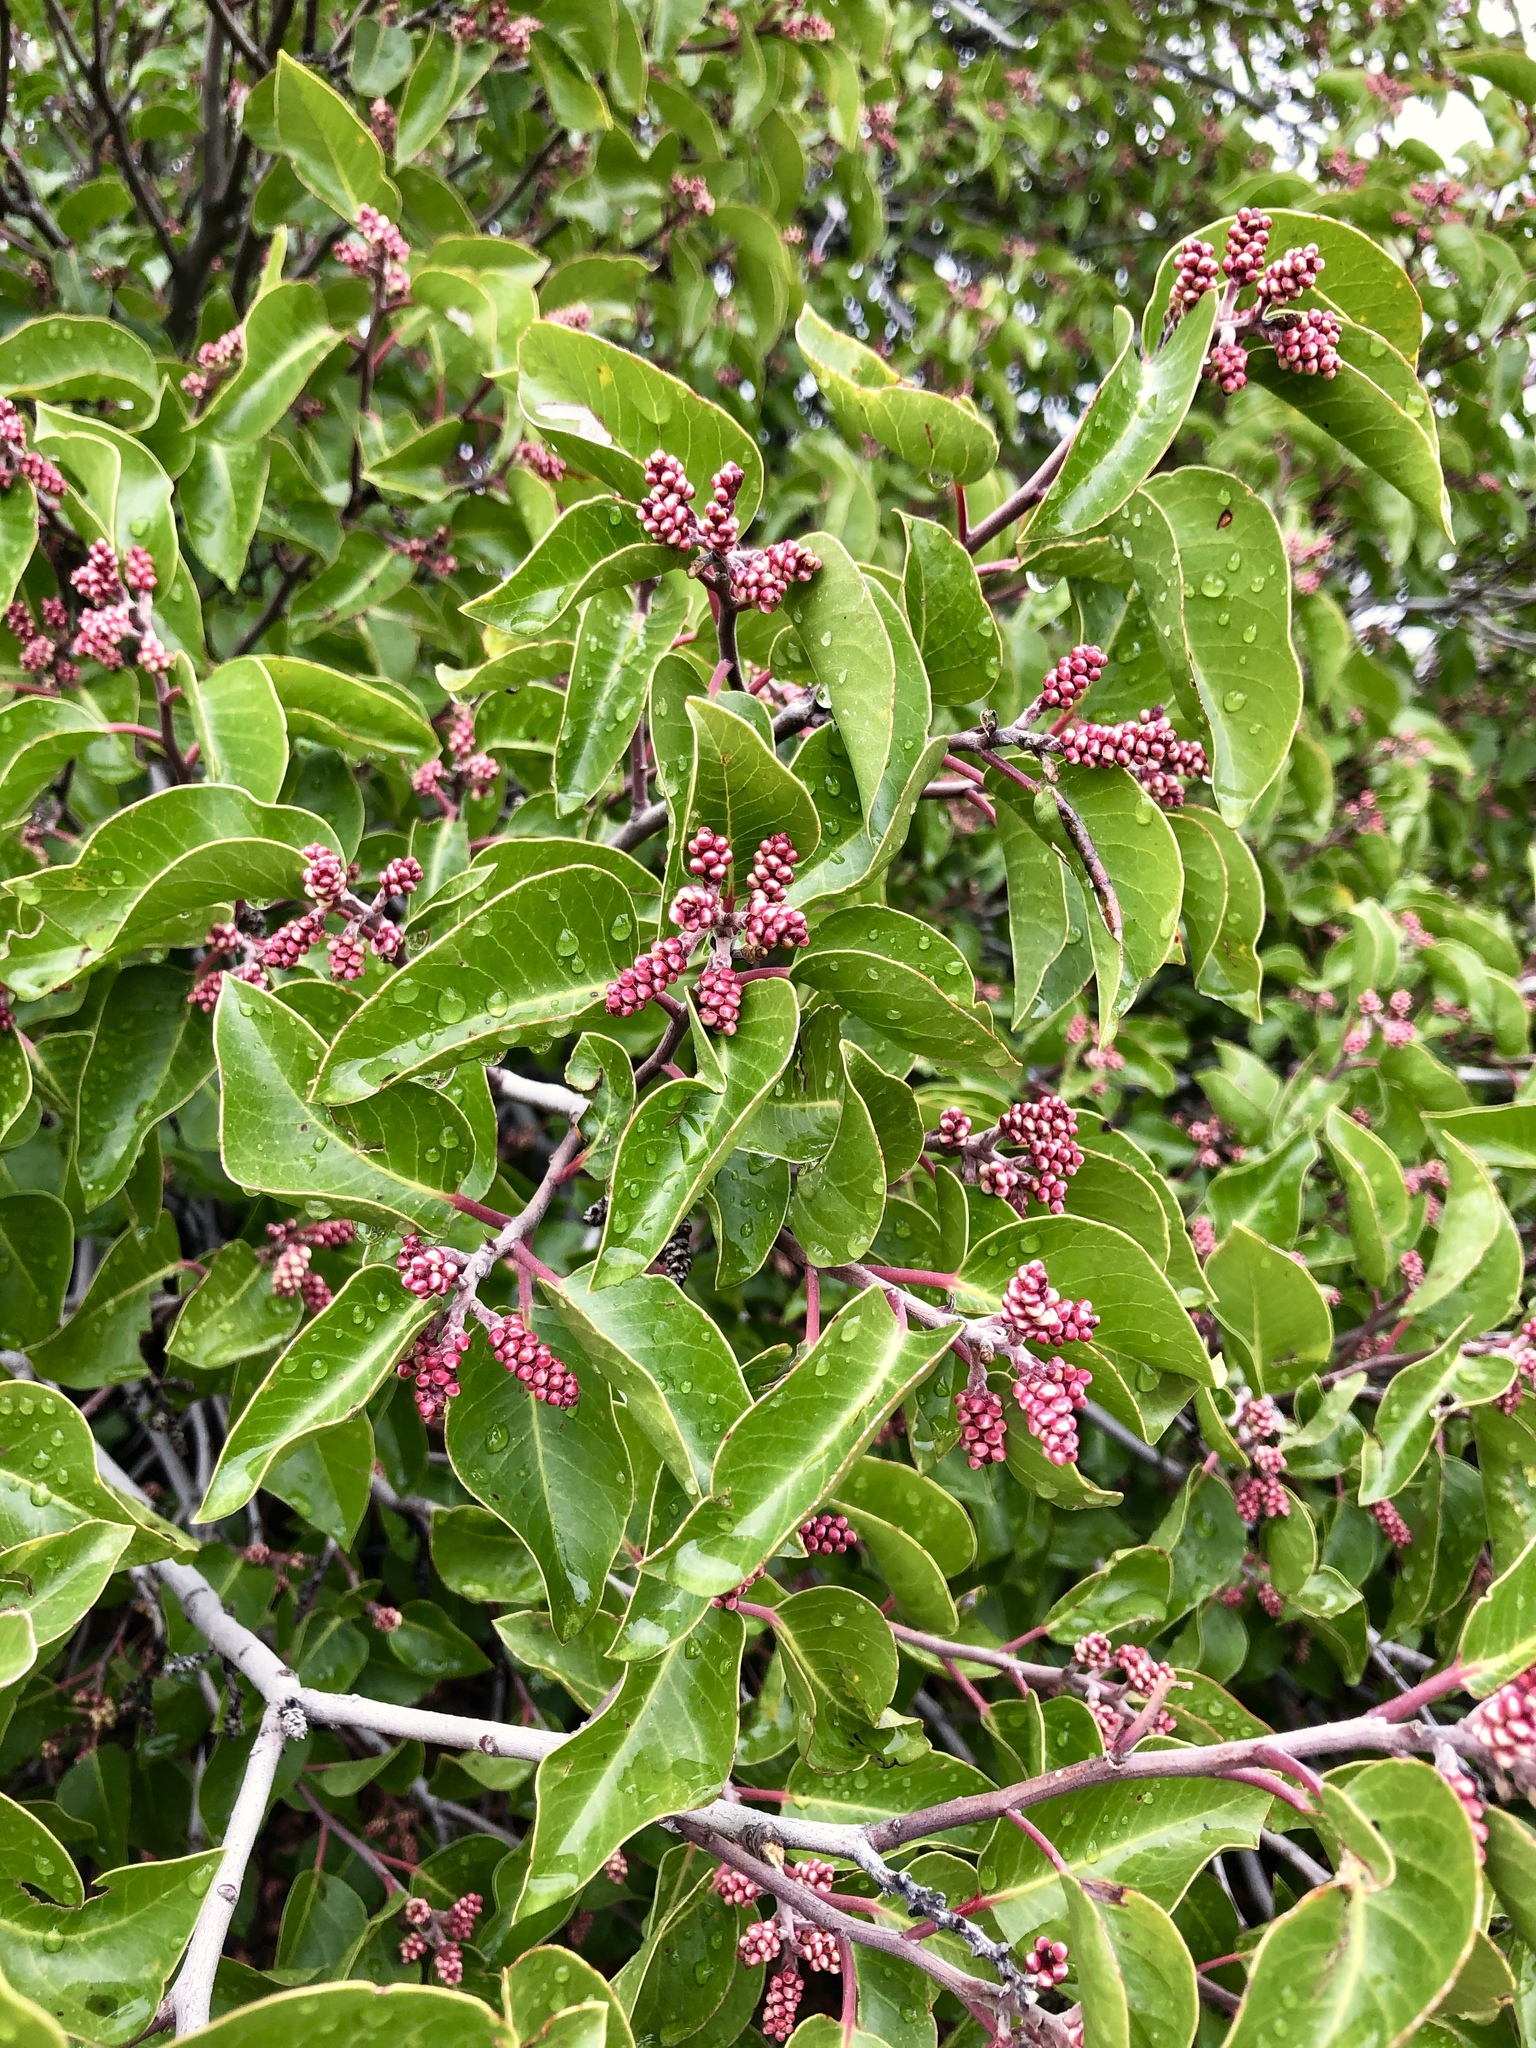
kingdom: Plantae
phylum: Tracheophyta
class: Magnoliopsida
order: Sapindales
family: Anacardiaceae
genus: Rhus
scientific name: Rhus ovata
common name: Sugar sumac
